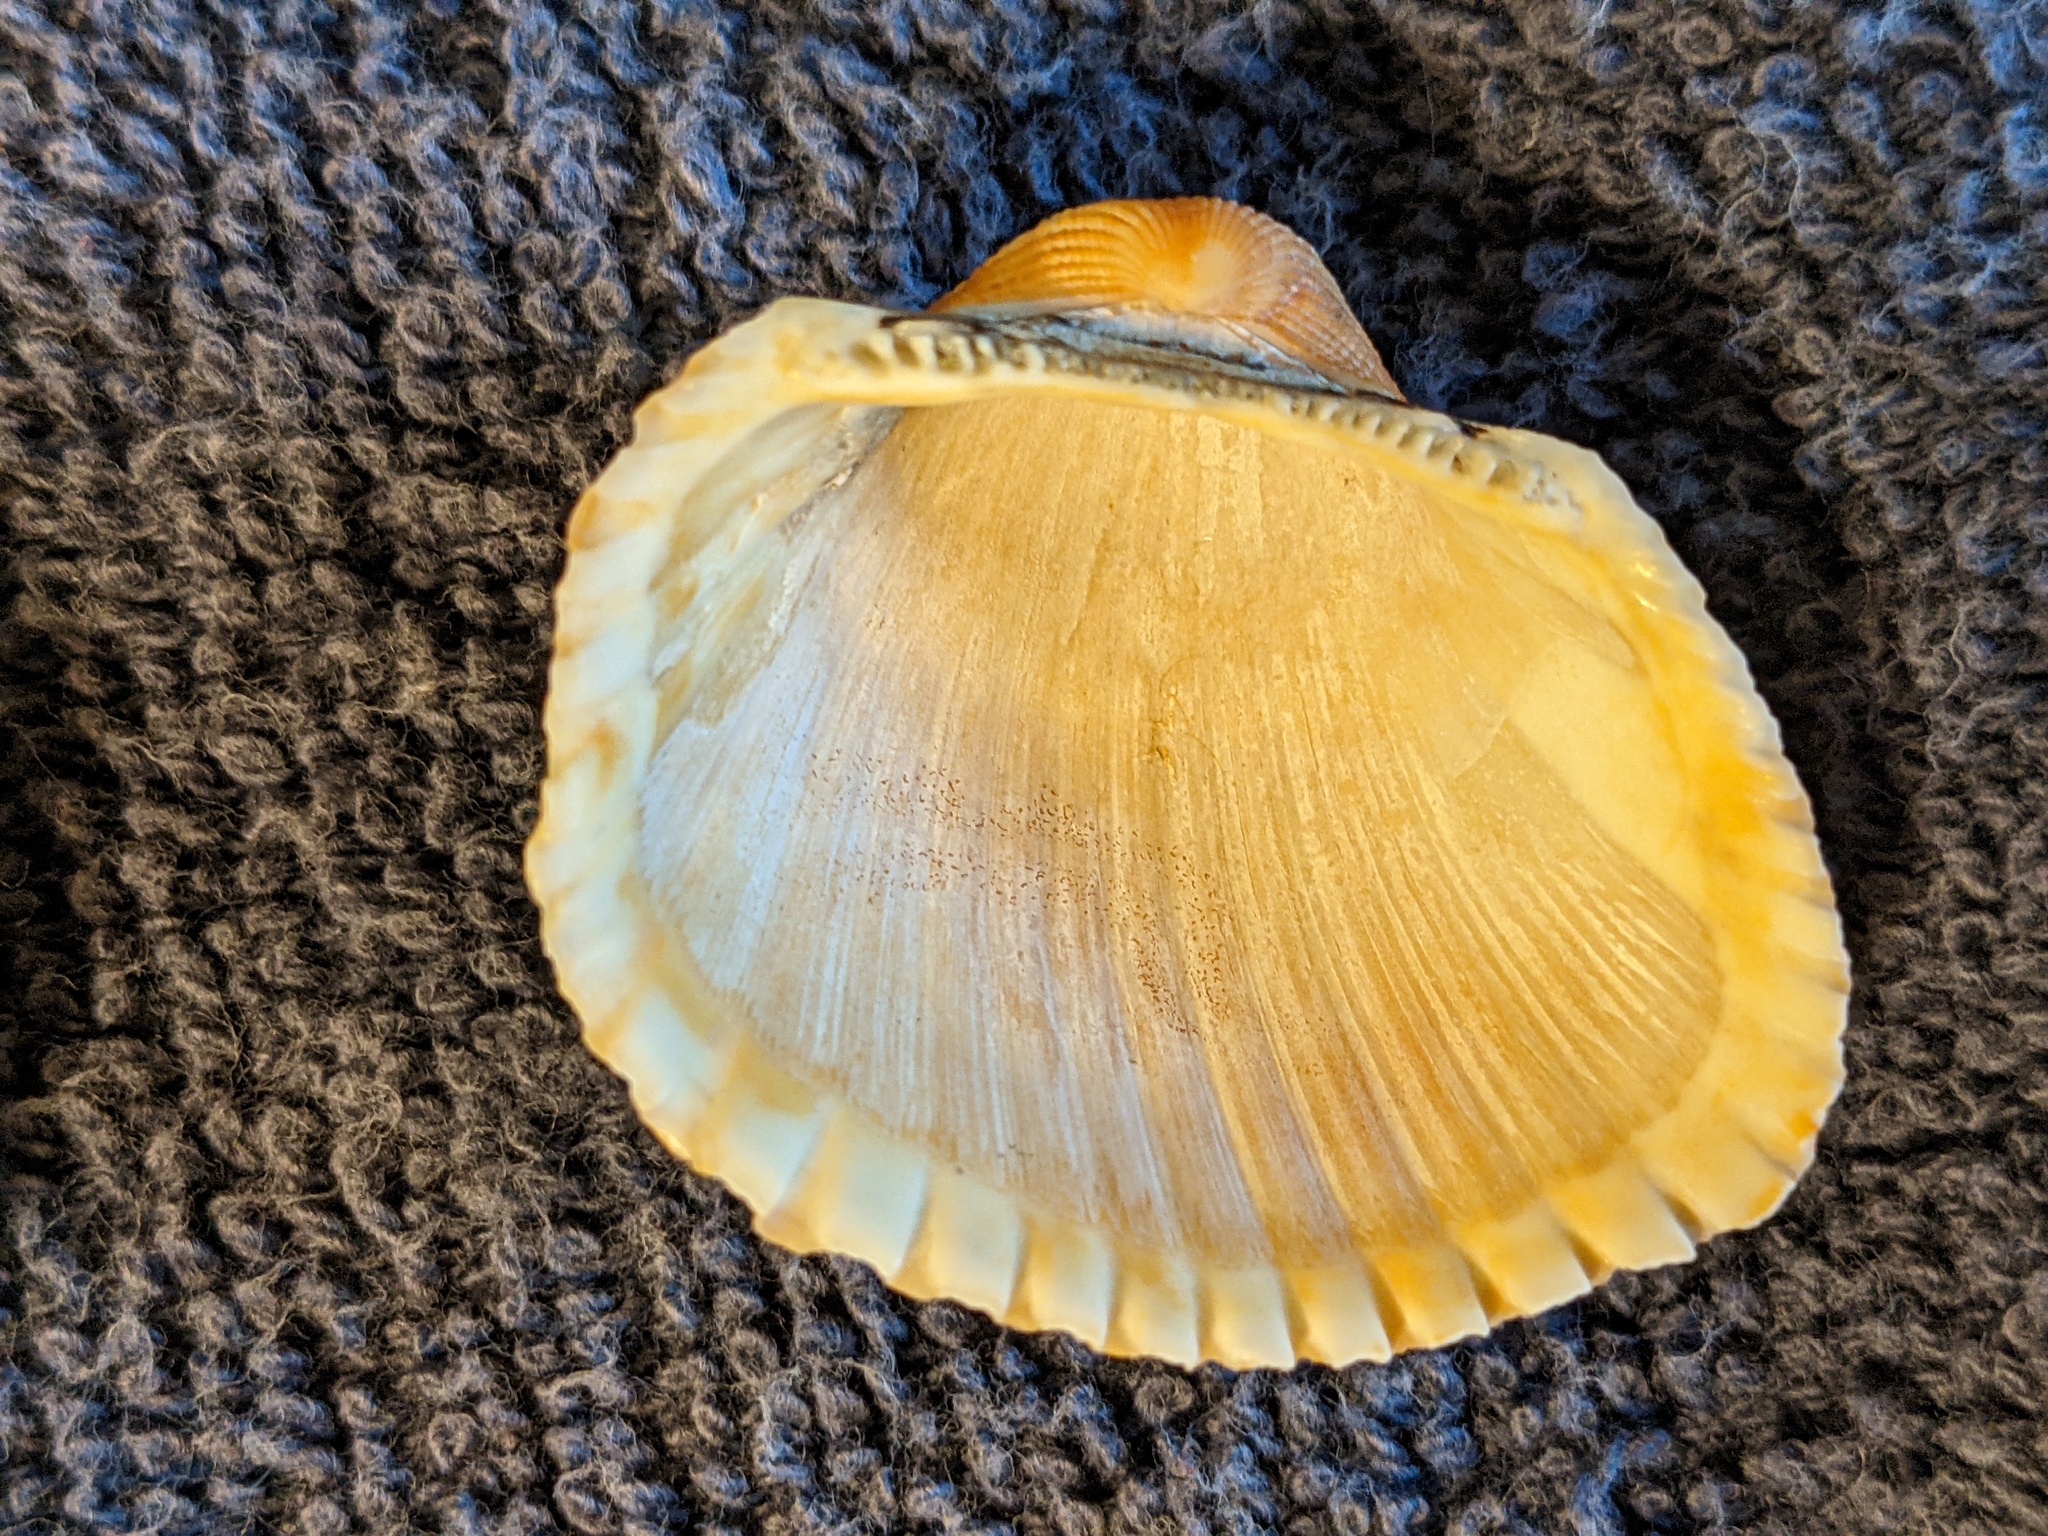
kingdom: Animalia
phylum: Mollusca
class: Bivalvia
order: Arcida
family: Arcidae
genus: Anadara
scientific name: Anadara brasiliana
